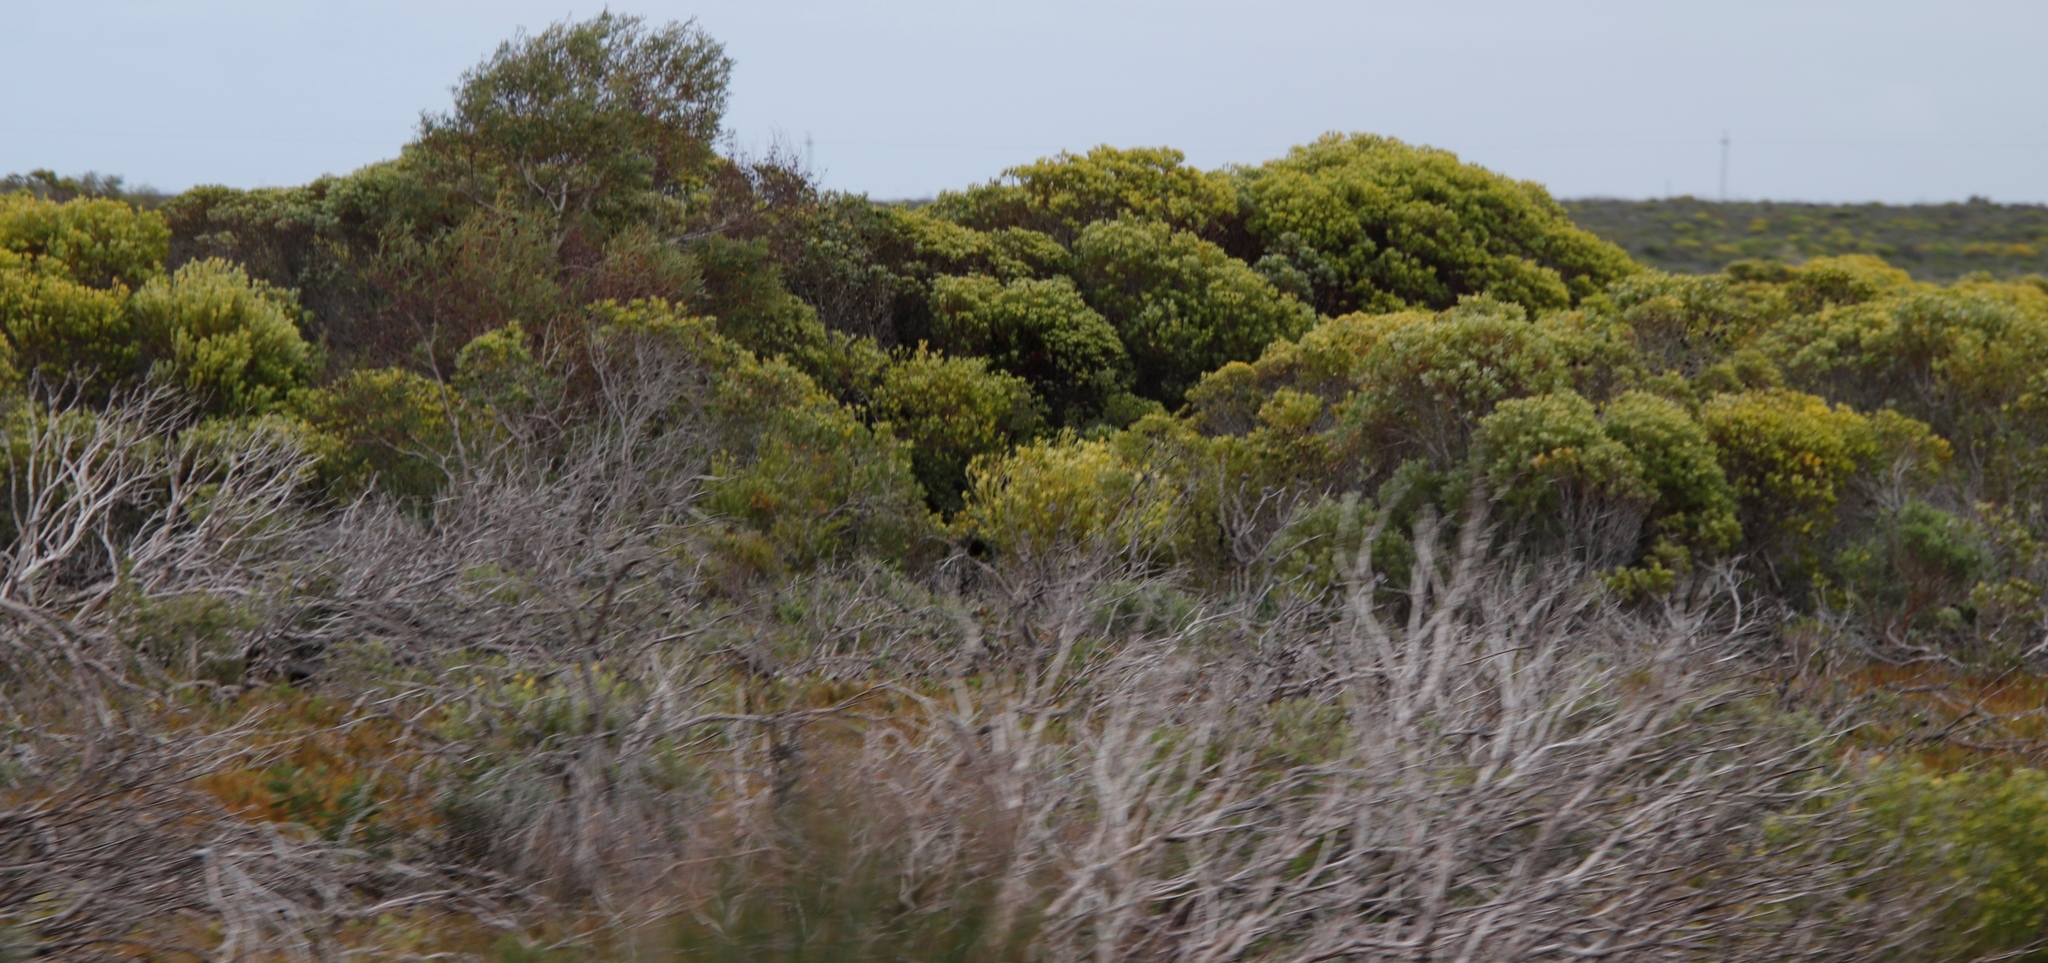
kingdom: Plantae
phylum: Tracheophyta
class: Magnoliopsida
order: Proteales
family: Proteaceae
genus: Leucadendron
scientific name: Leucadendron meridianum
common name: Limestone conebush
